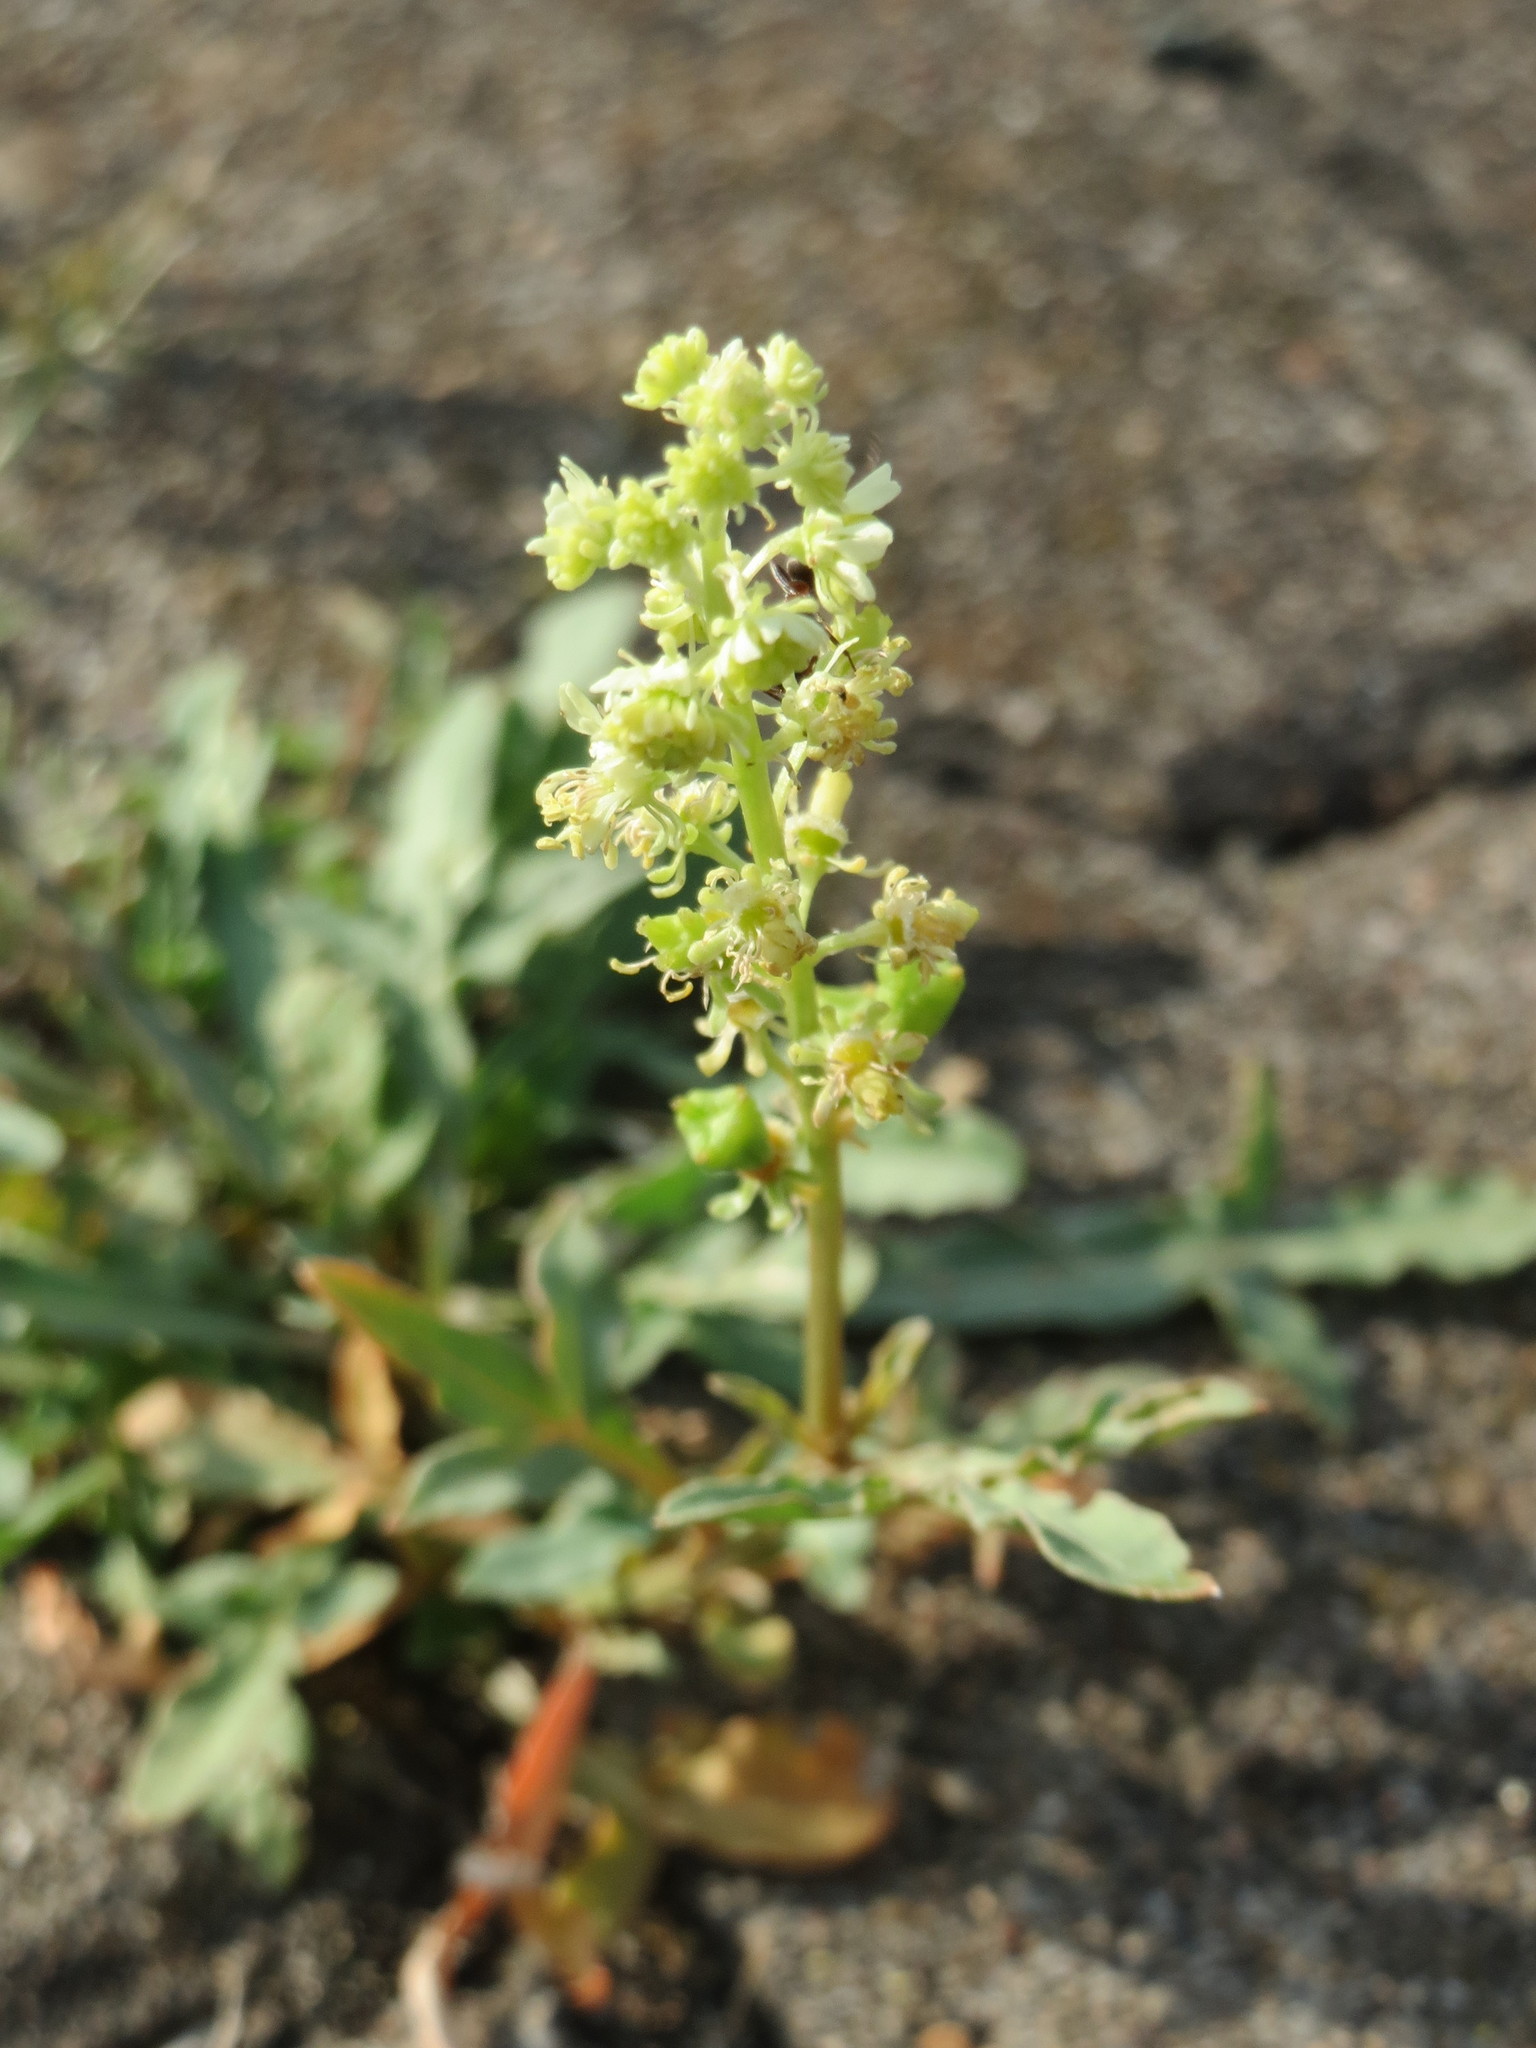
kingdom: Plantae
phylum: Tracheophyta
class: Magnoliopsida
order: Brassicales
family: Resedaceae
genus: Reseda
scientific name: Reseda lutea
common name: Wild mignonette
